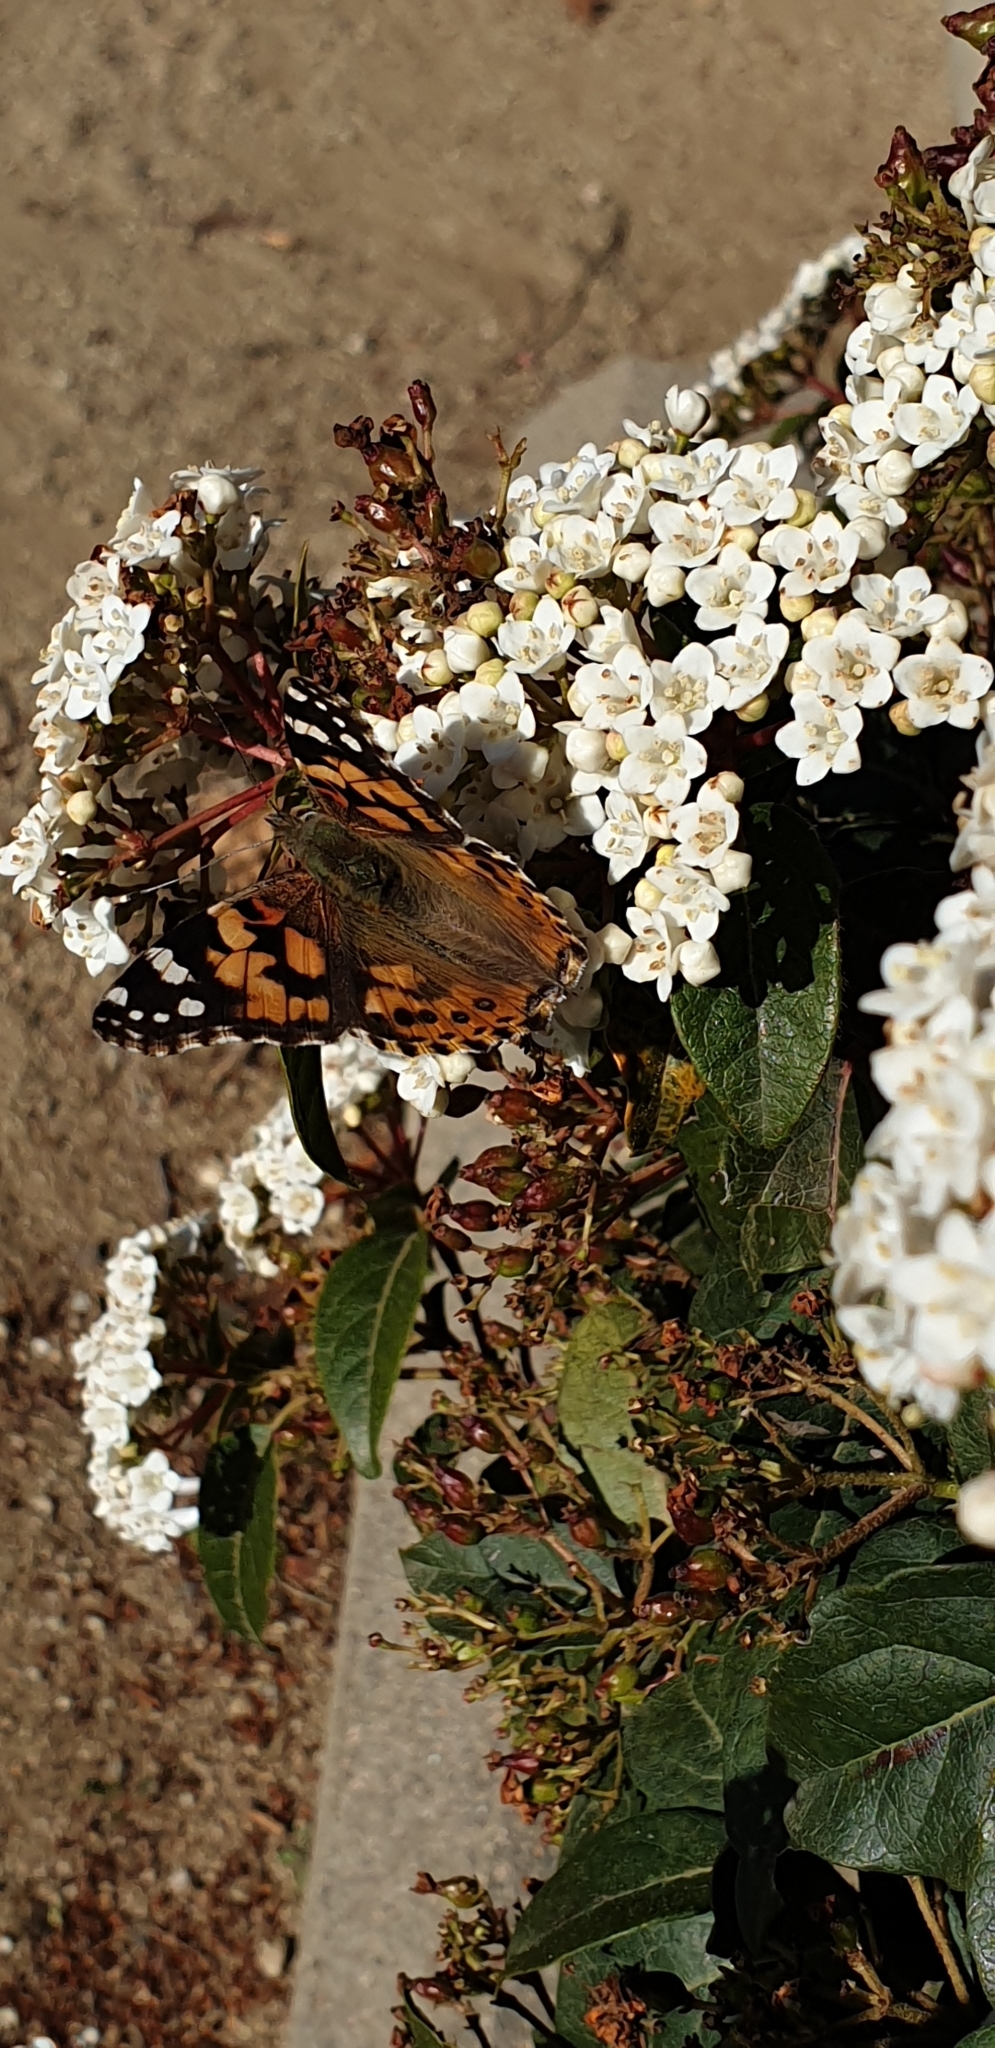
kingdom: Animalia
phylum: Arthropoda
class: Insecta
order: Lepidoptera
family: Nymphalidae
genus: Vanessa
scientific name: Vanessa cardui
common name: Painted lady
